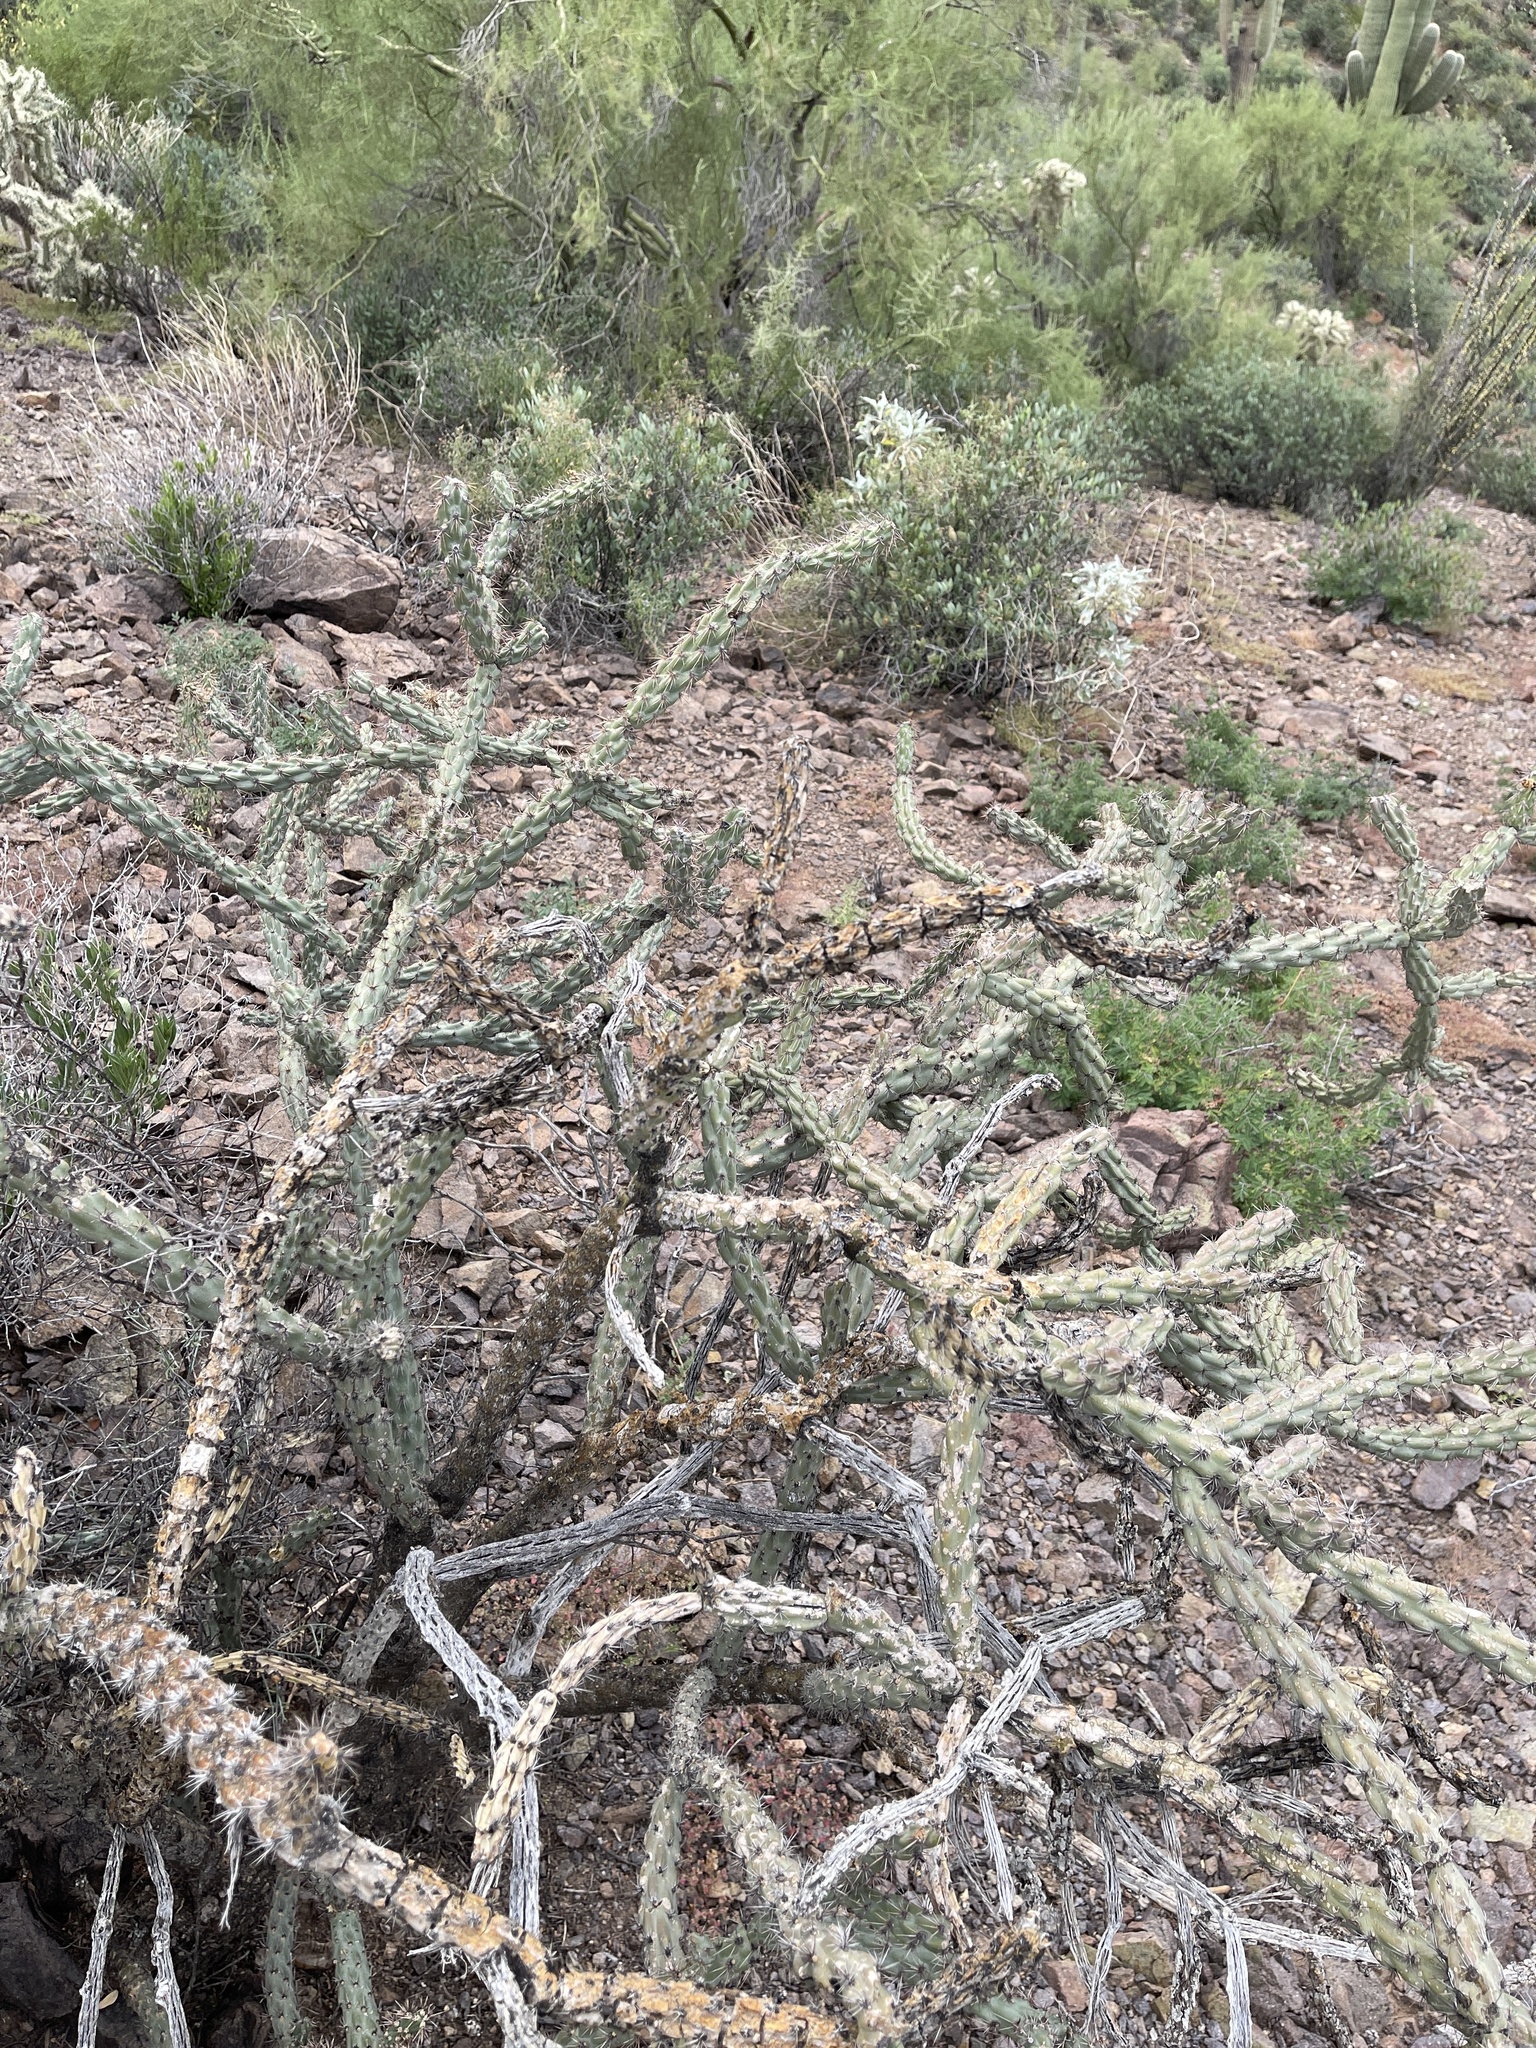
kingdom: Plantae
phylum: Tracheophyta
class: Magnoliopsida
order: Caryophyllales
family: Cactaceae
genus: Cylindropuntia
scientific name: Cylindropuntia thurberi
